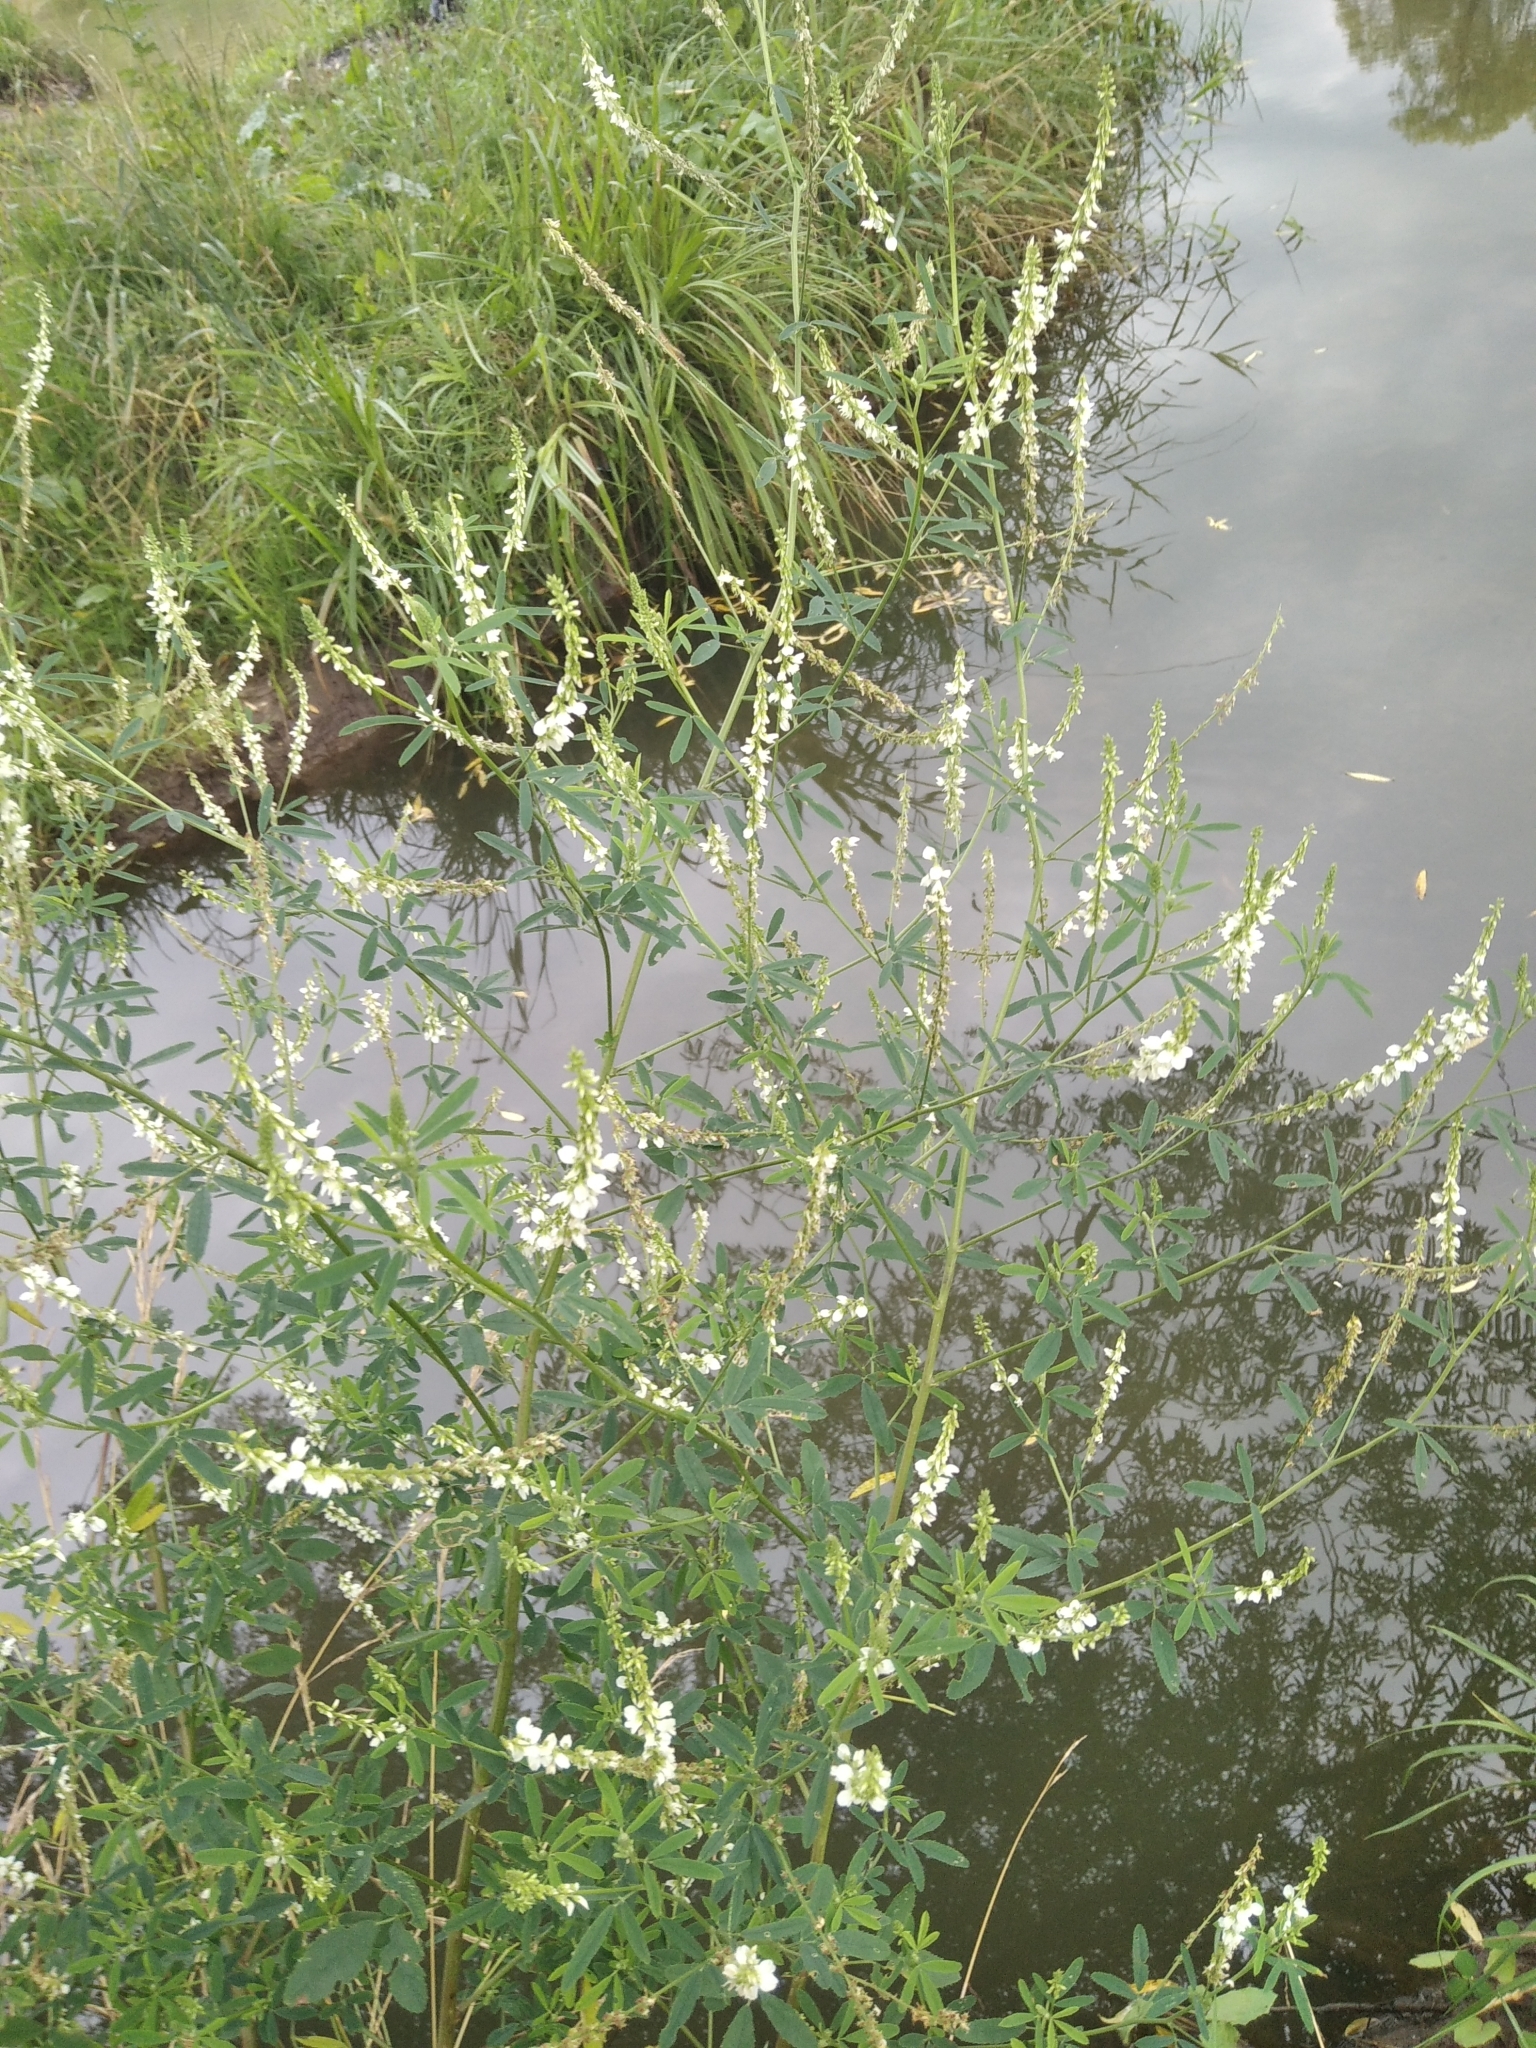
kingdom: Plantae
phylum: Tracheophyta
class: Magnoliopsida
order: Fabales
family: Fabaceae
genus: Melilotus
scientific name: Melilotus albus
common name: White melilot
